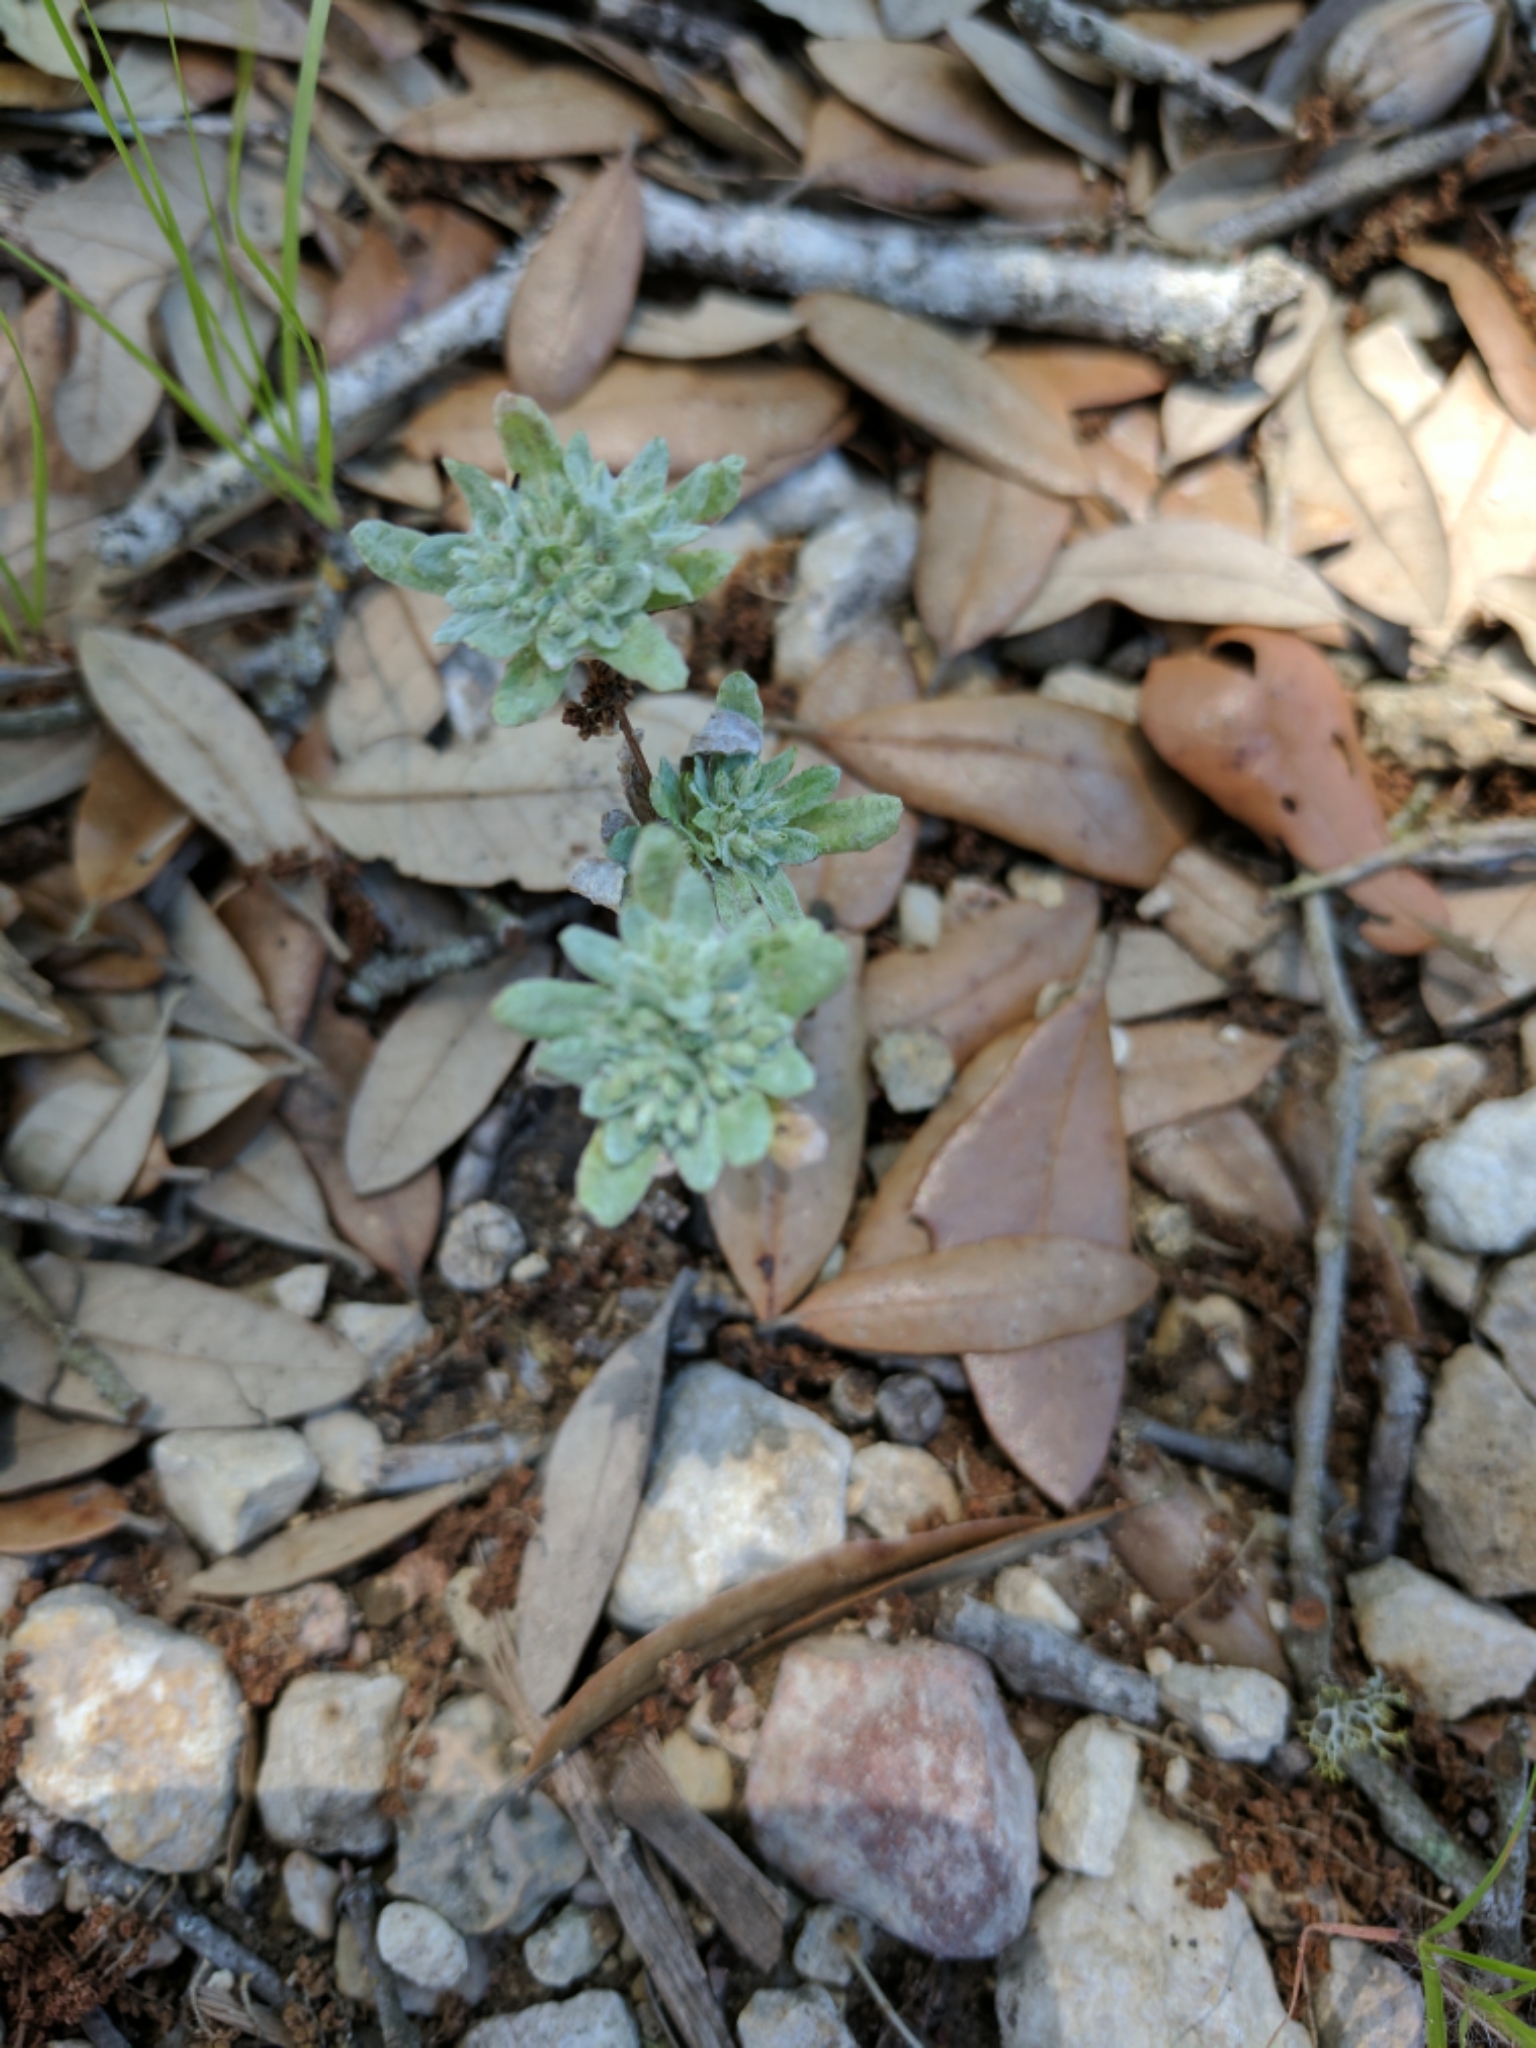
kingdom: Plantae
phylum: Tracheophyta
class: Magnoliopsida
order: Asterales
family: Asteraceae
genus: Diaperia
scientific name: Diaperia prolifera
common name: Big-head rabbit-tobacco
